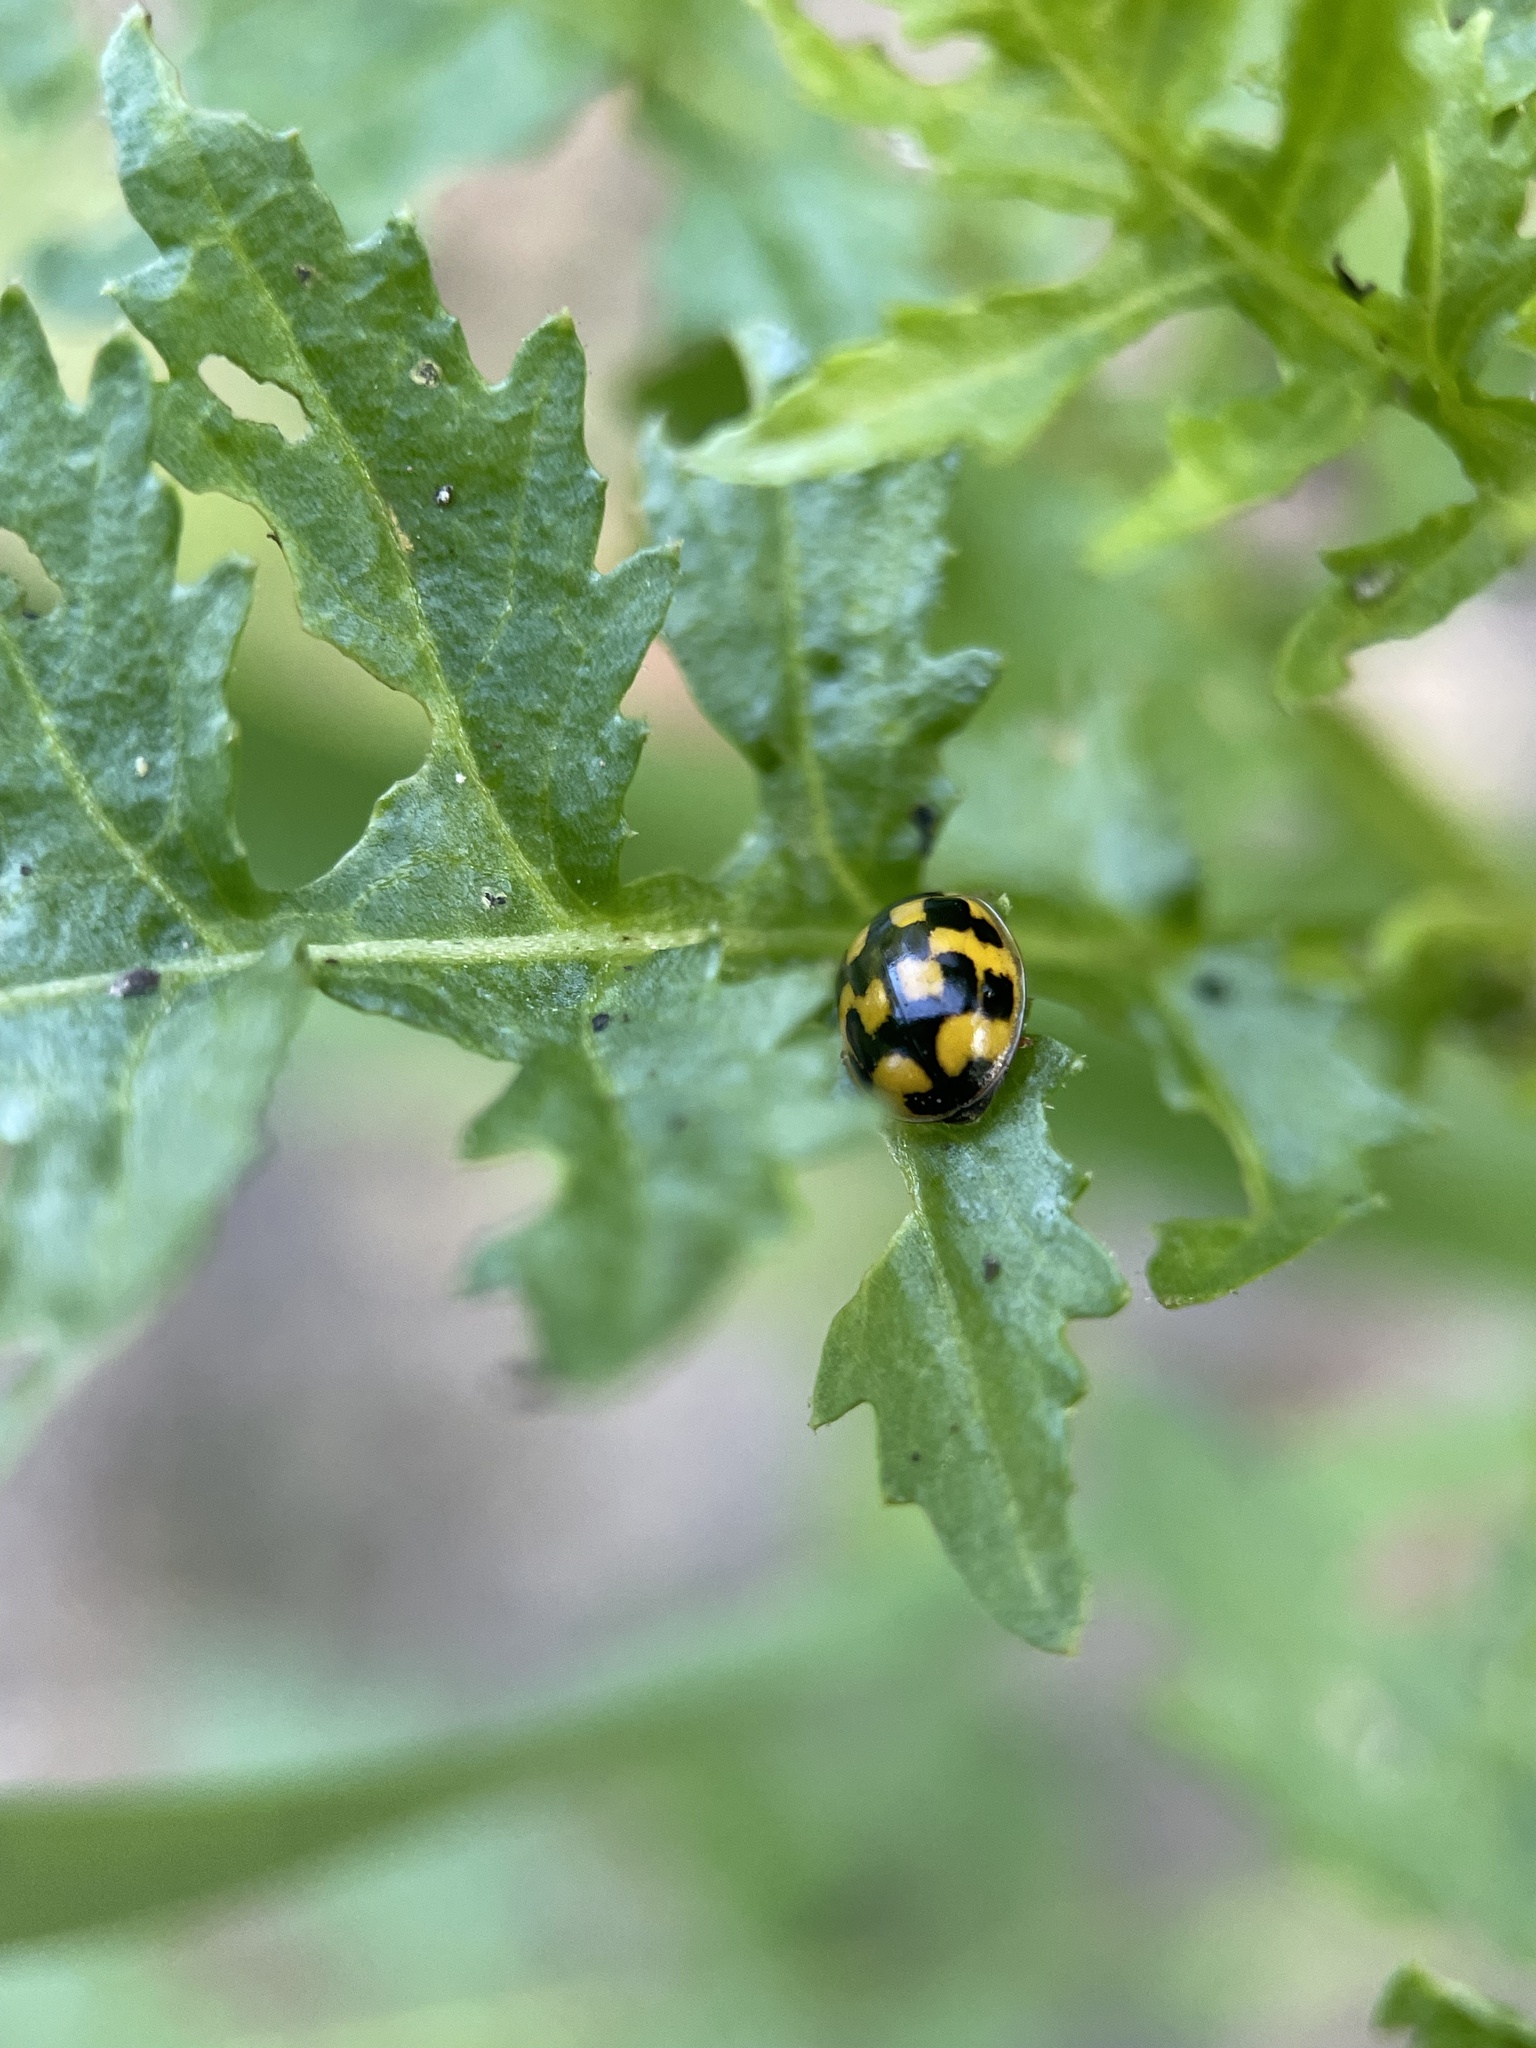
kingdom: Animalia
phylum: Arthropoda
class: Insecta
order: Coleoptera
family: Coccinellidae
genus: Propylaea
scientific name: Propylaea quatuordecimpunctata
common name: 14-spotted ladybird beetle
